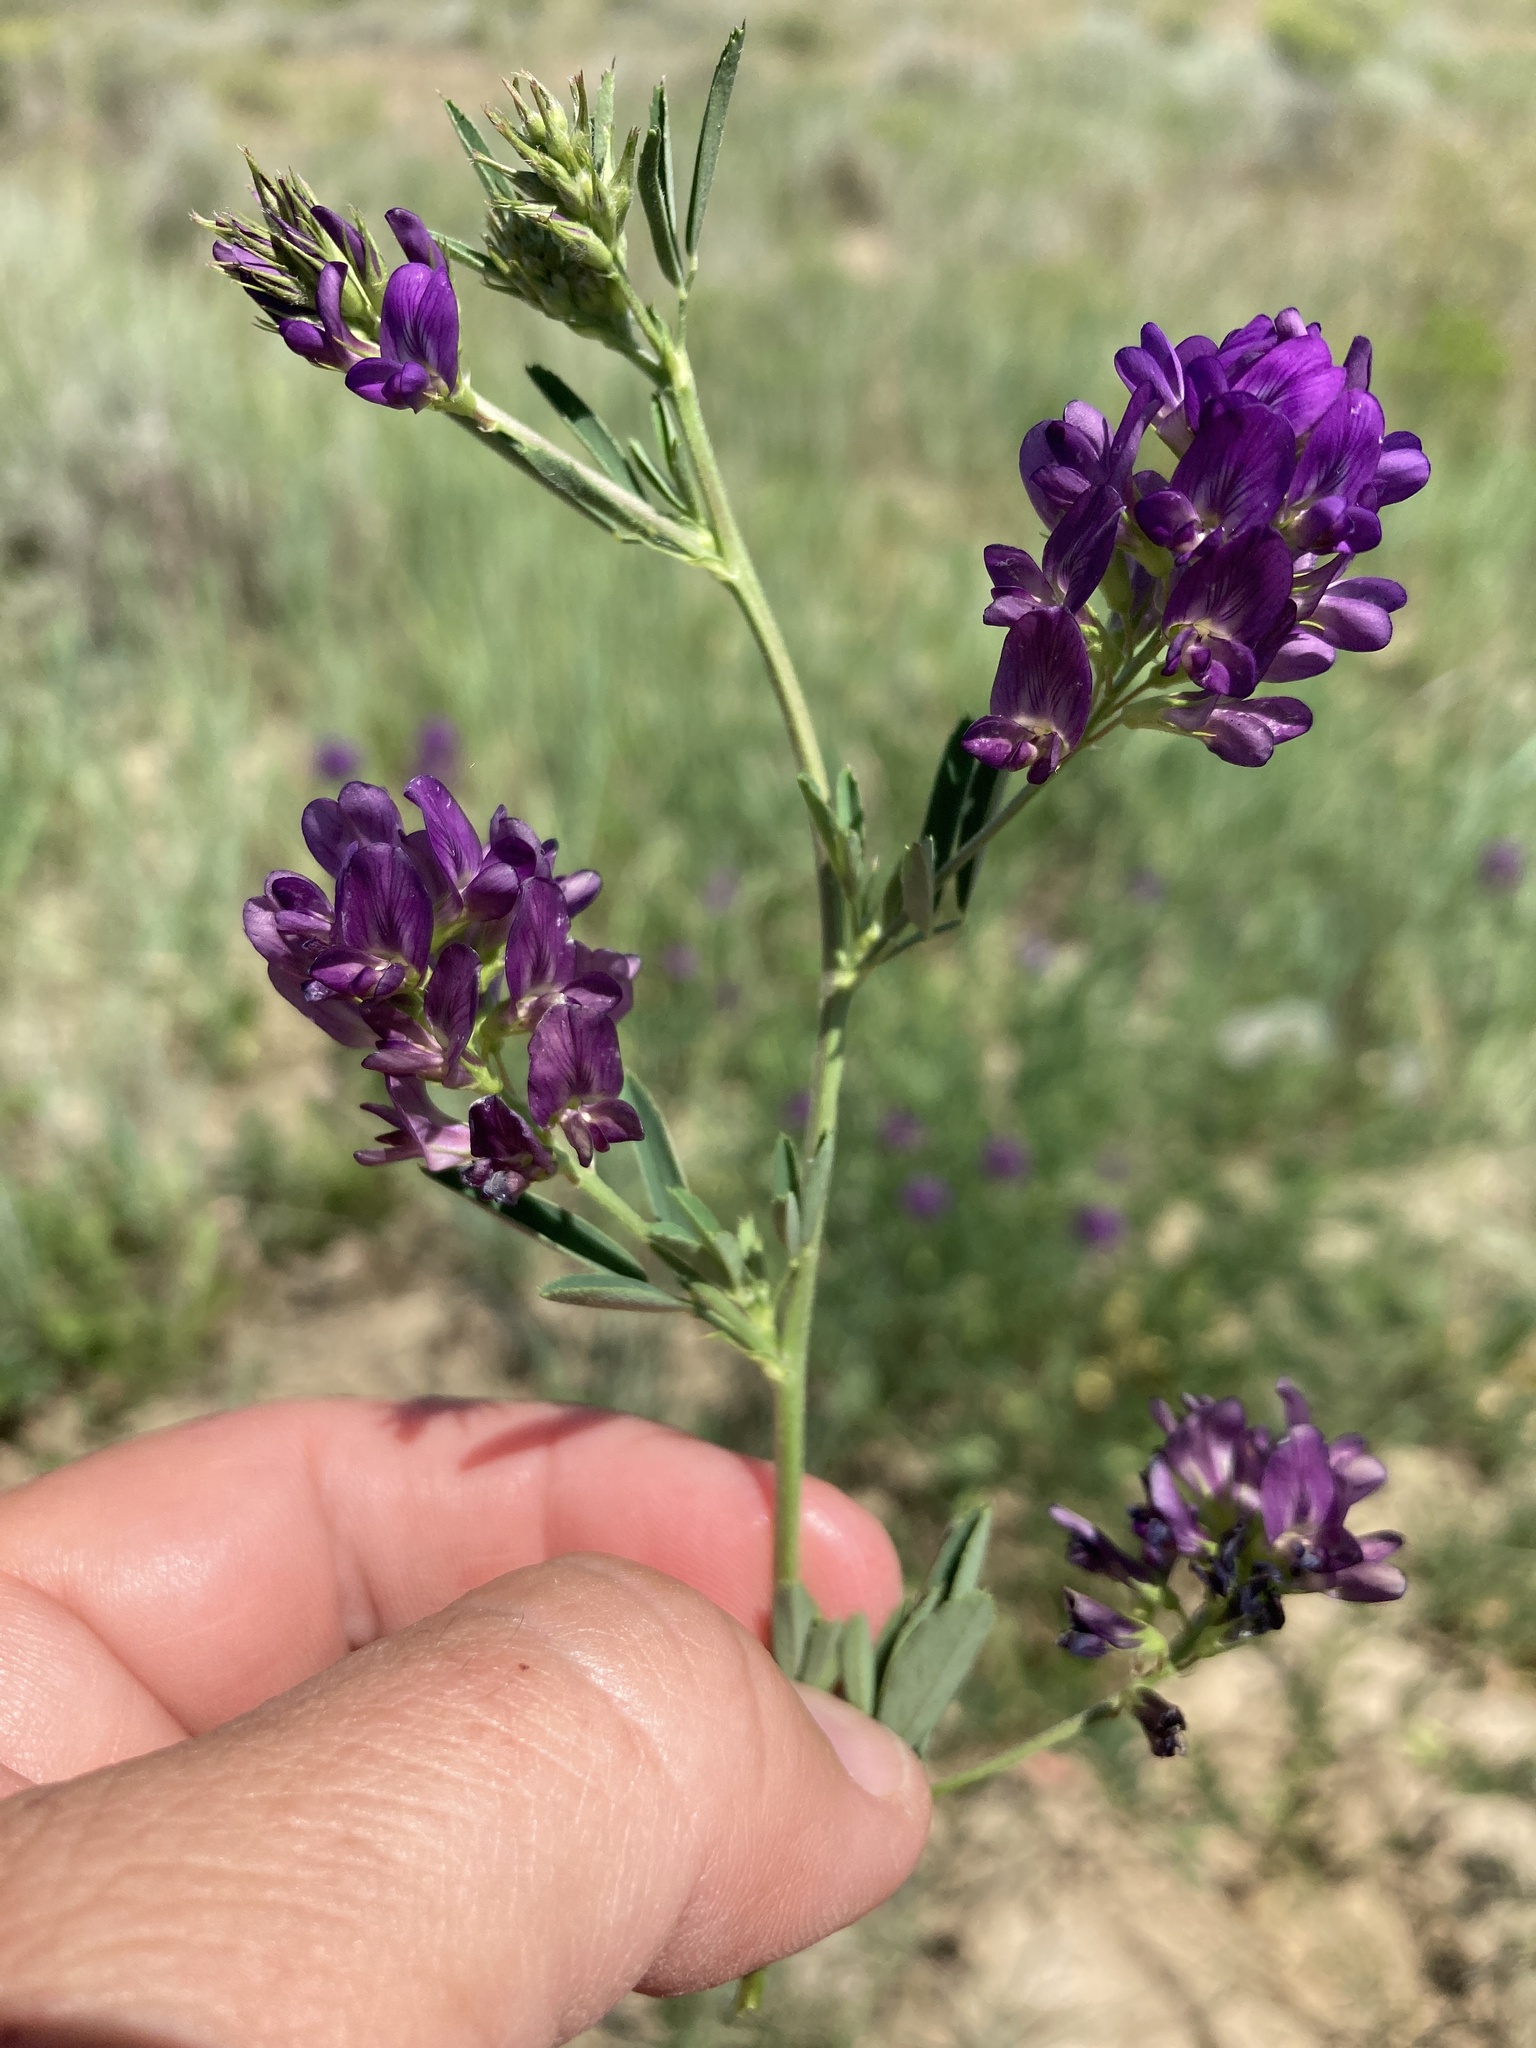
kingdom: Plantae
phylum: Tracheophyta
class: Magnoliopsida
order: Fabales
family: Fabaceae
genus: Medicago
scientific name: Medicago sativa
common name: Alfalfa
